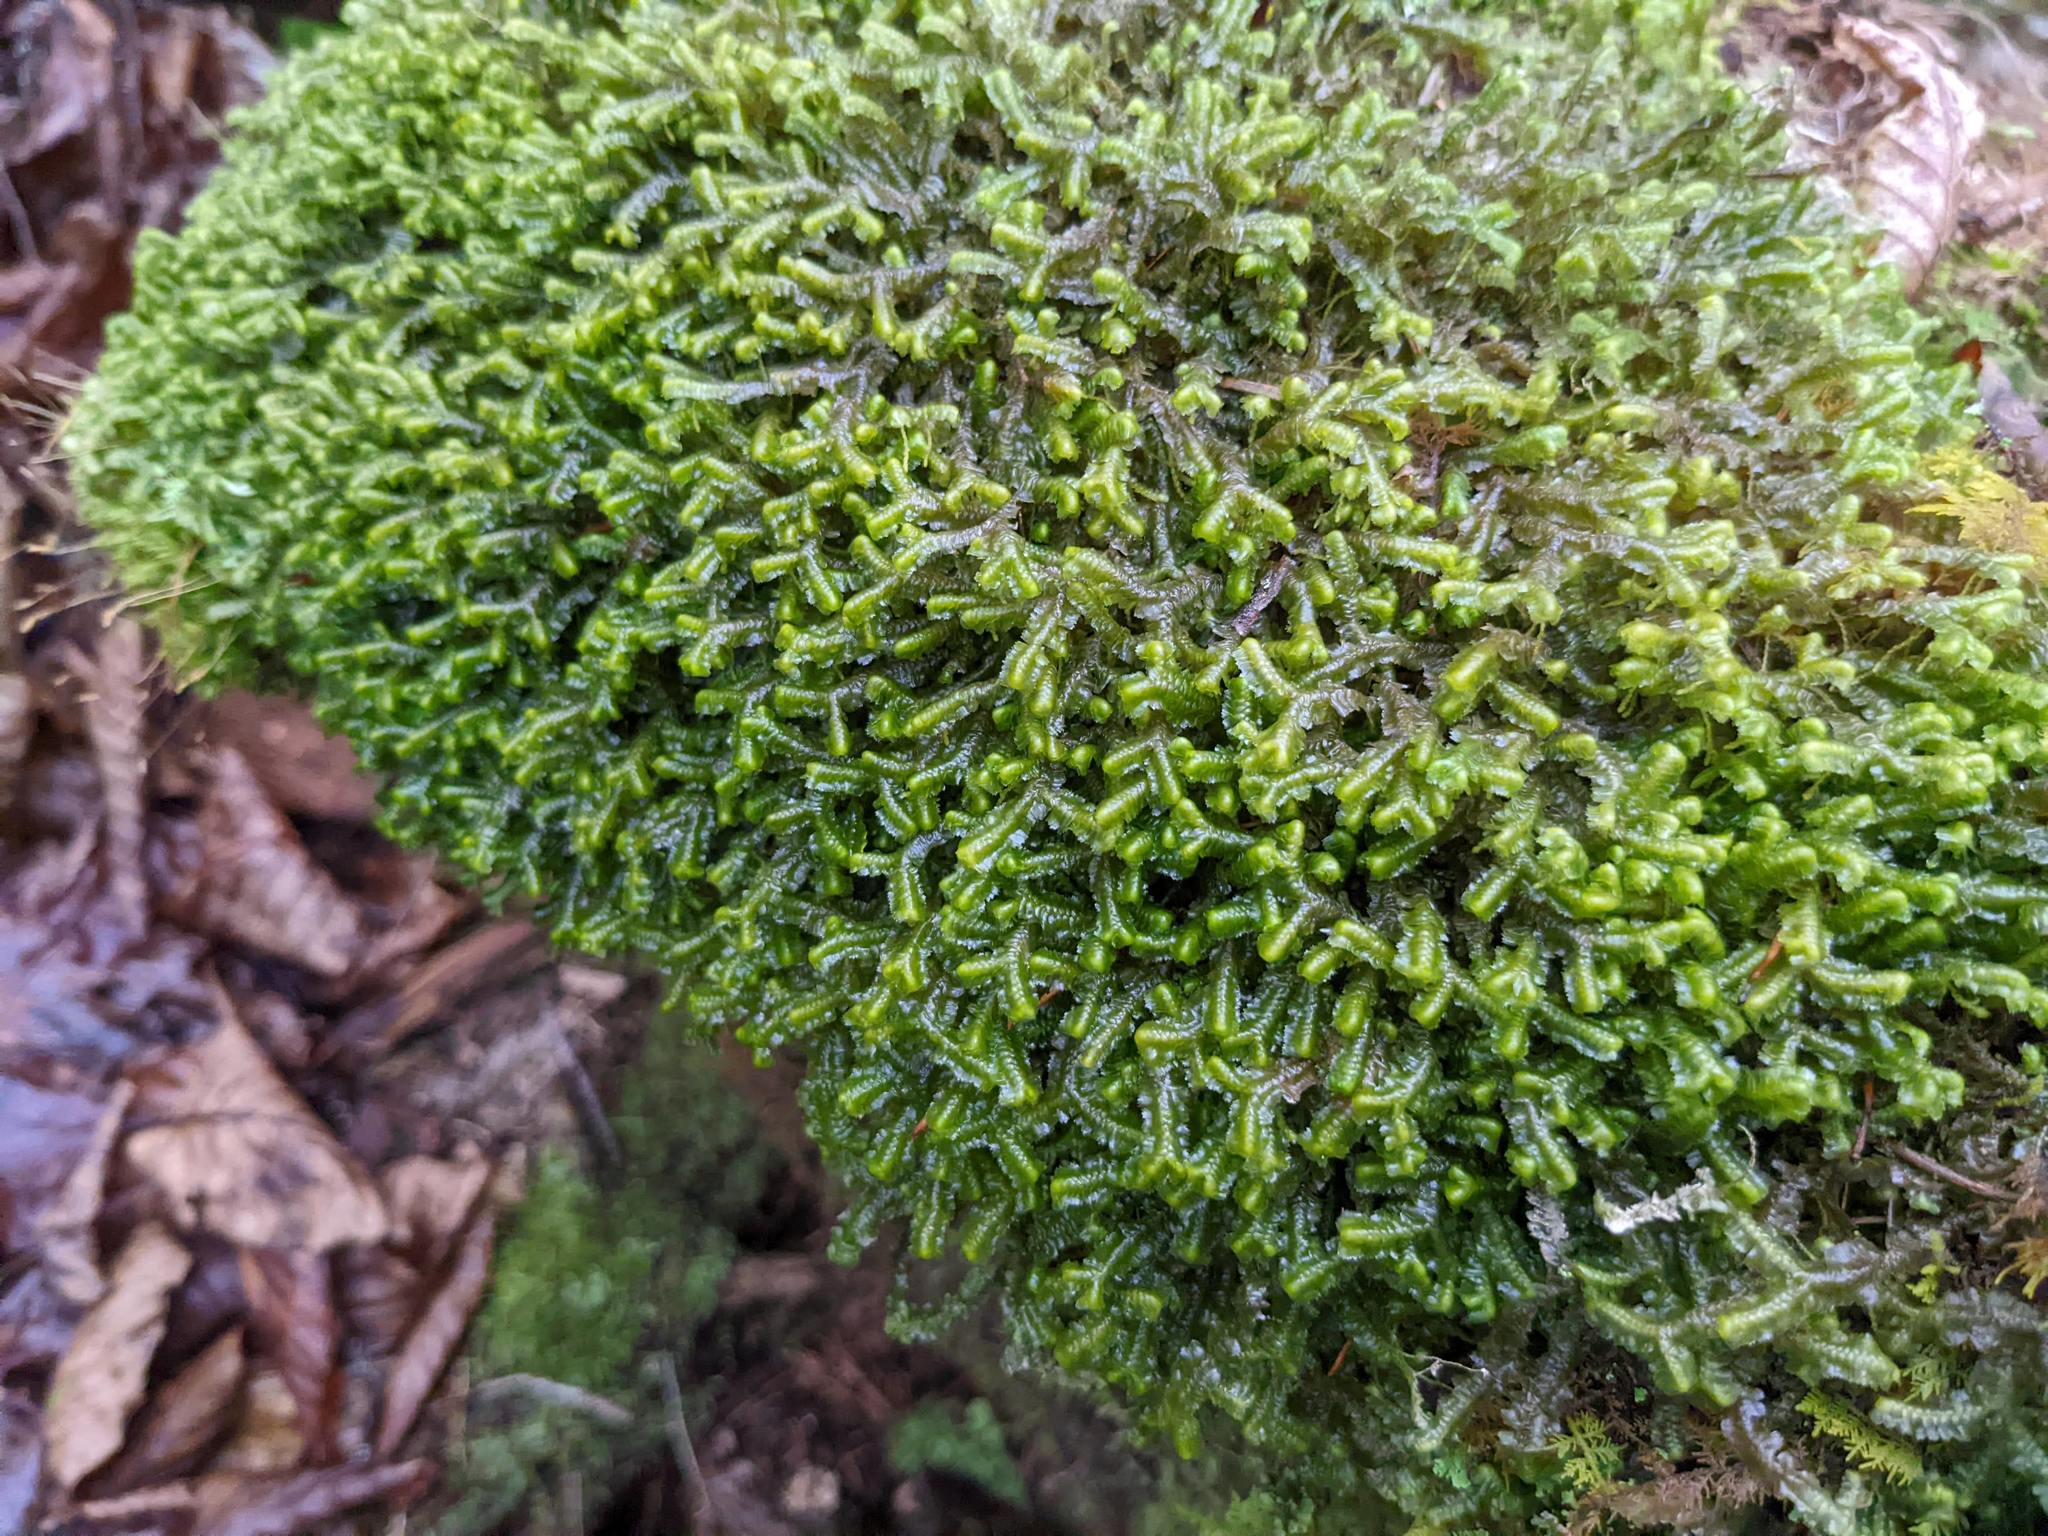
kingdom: Plantae
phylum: Marchantiophyta
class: Jungermanniopsida
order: Jungermanniales
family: Lepidoziaceae
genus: Bazzania
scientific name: Bazzania trilobata
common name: Three-lobed whipwort
